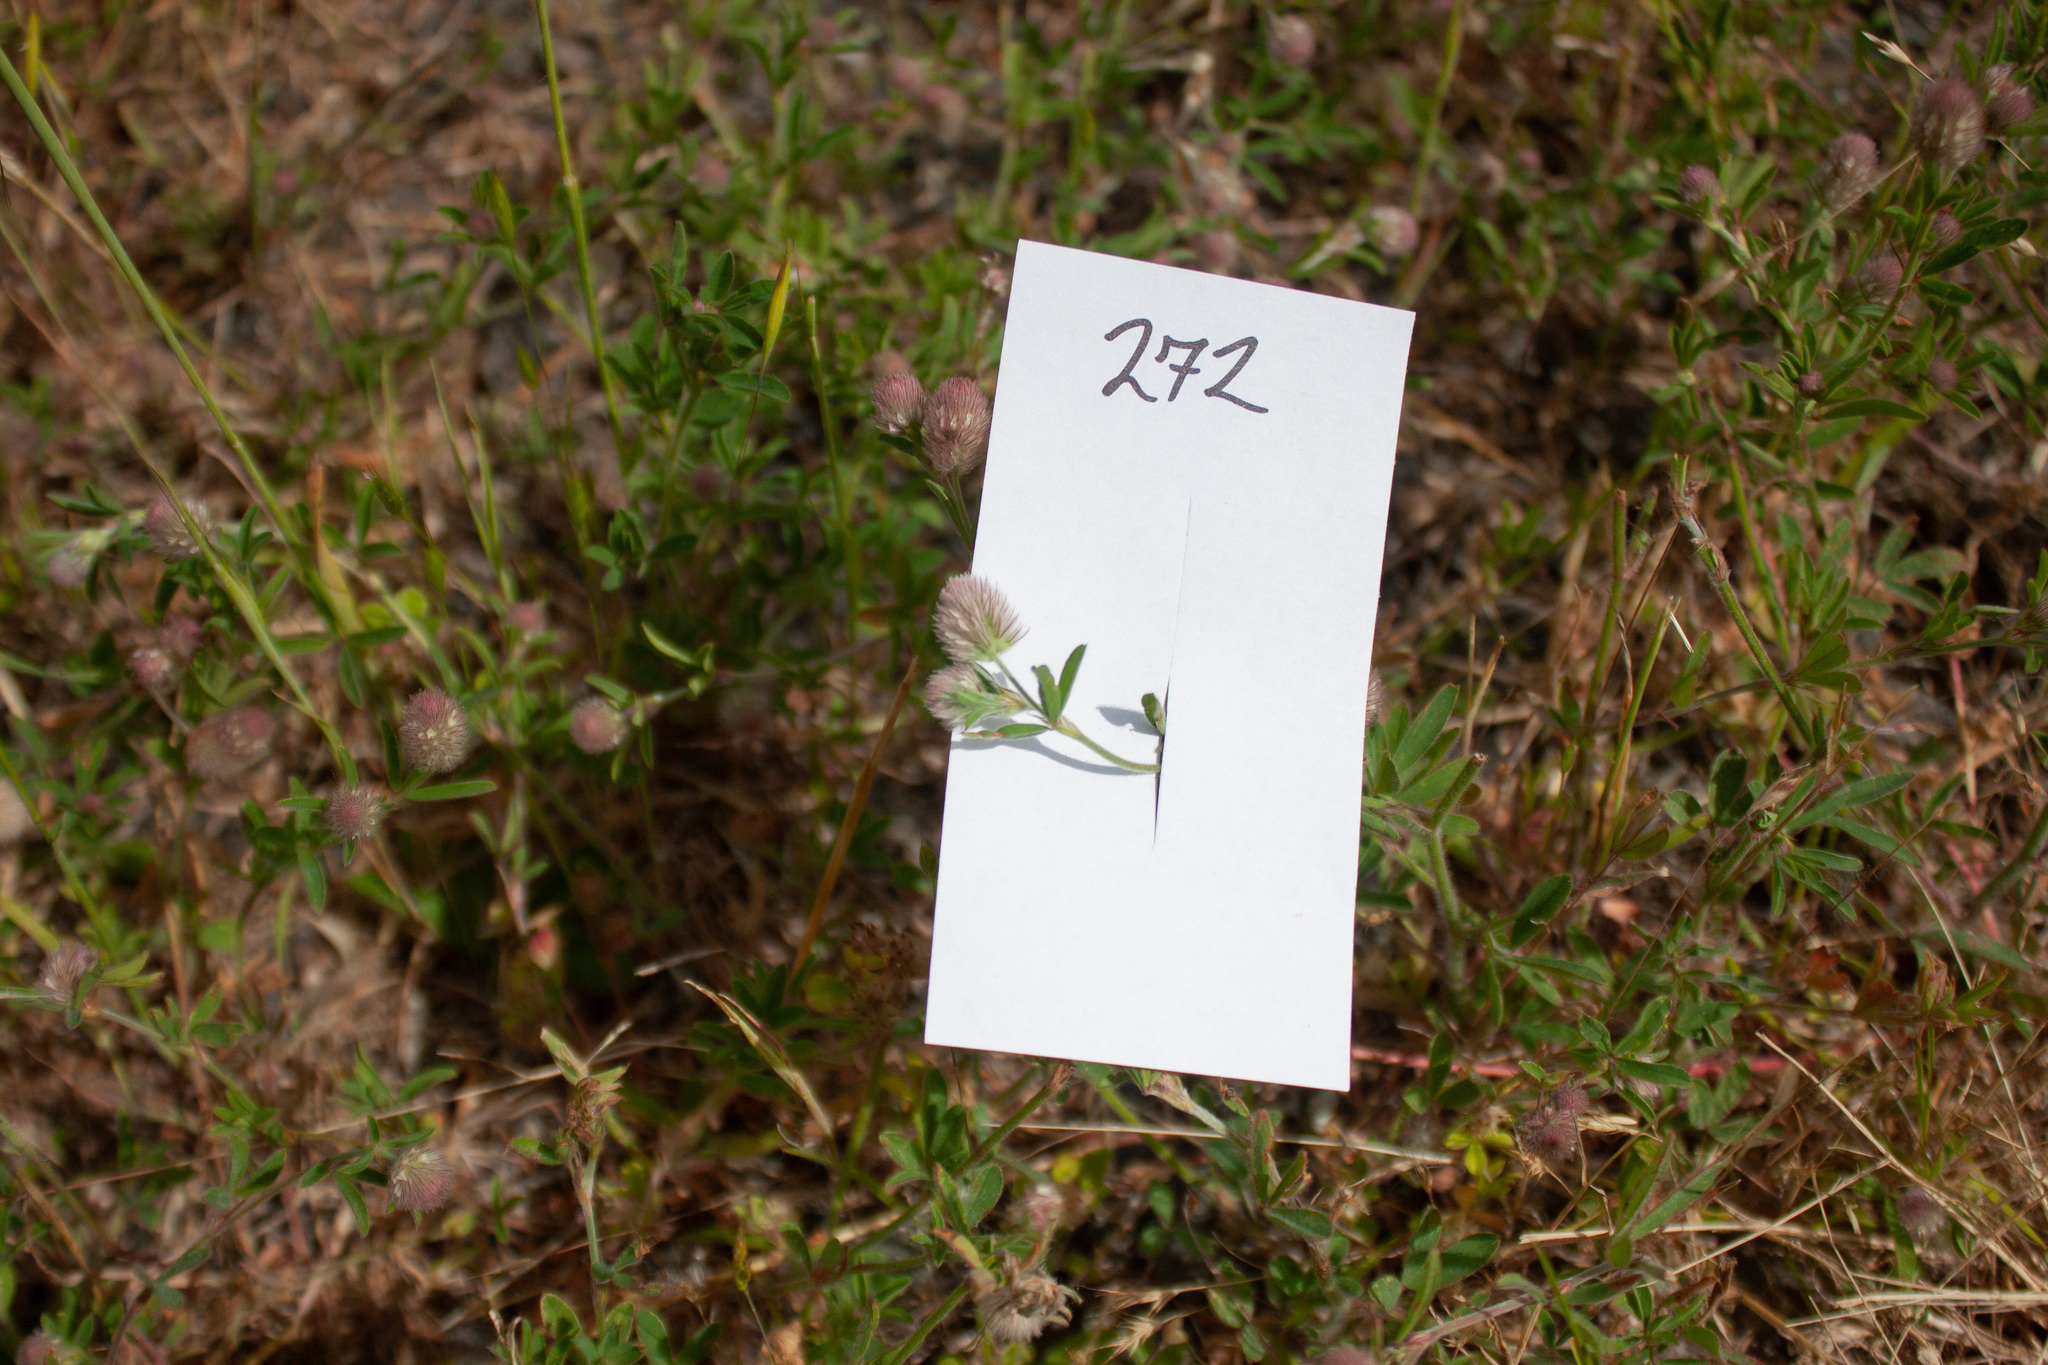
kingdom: Plantae
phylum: Tracheophyta
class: Magnoliopsida
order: Fabales
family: Fabaceae
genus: Trifolium
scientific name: Trifolium arvense
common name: Hare's-foot clover
